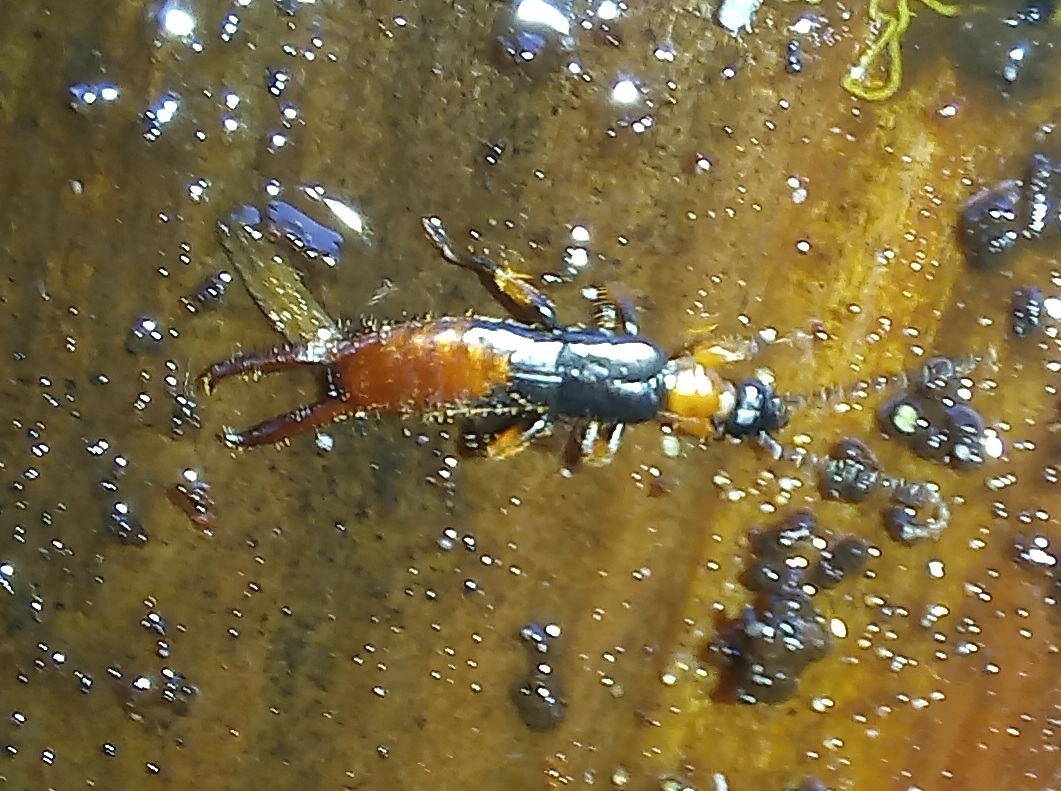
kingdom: Animalia
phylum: Arthropoda
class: Insecta
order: Dermaptera
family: Spongiphoridae
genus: Paraspania
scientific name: Paraspania brunneri
